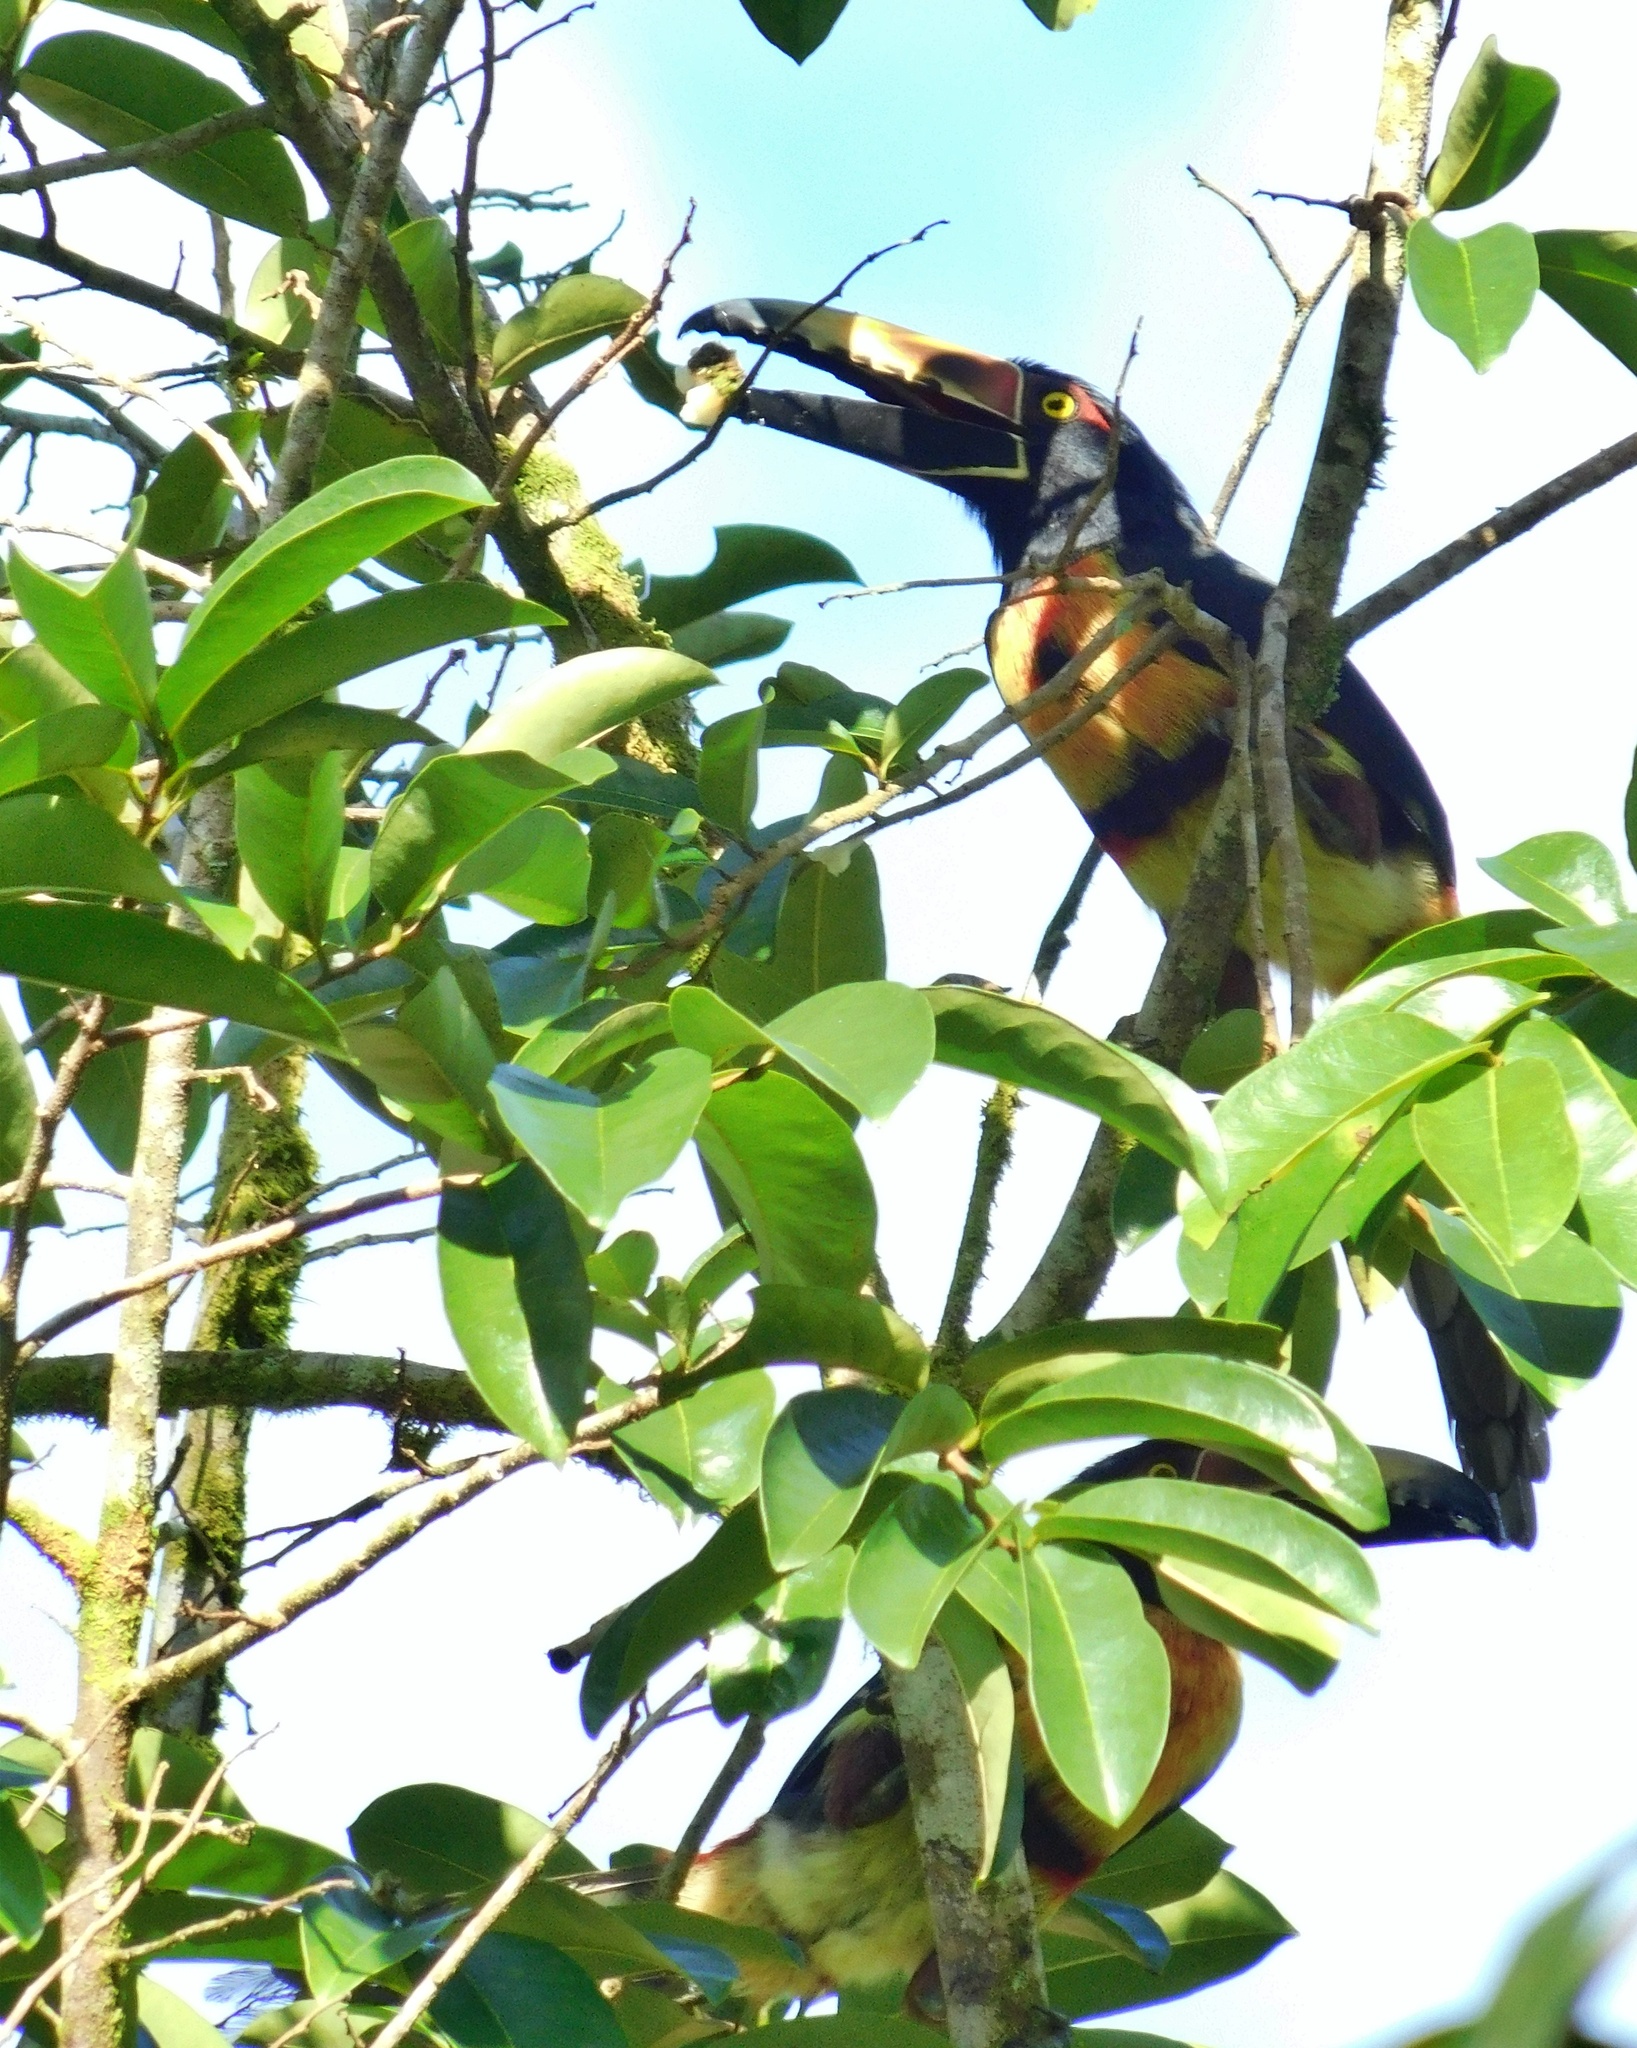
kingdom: Animalia
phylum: Chordata
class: Aves
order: Piciformes
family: Ramphastidae
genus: Pteroglossus
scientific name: Pteroglossus torquatus
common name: Collared aracari
